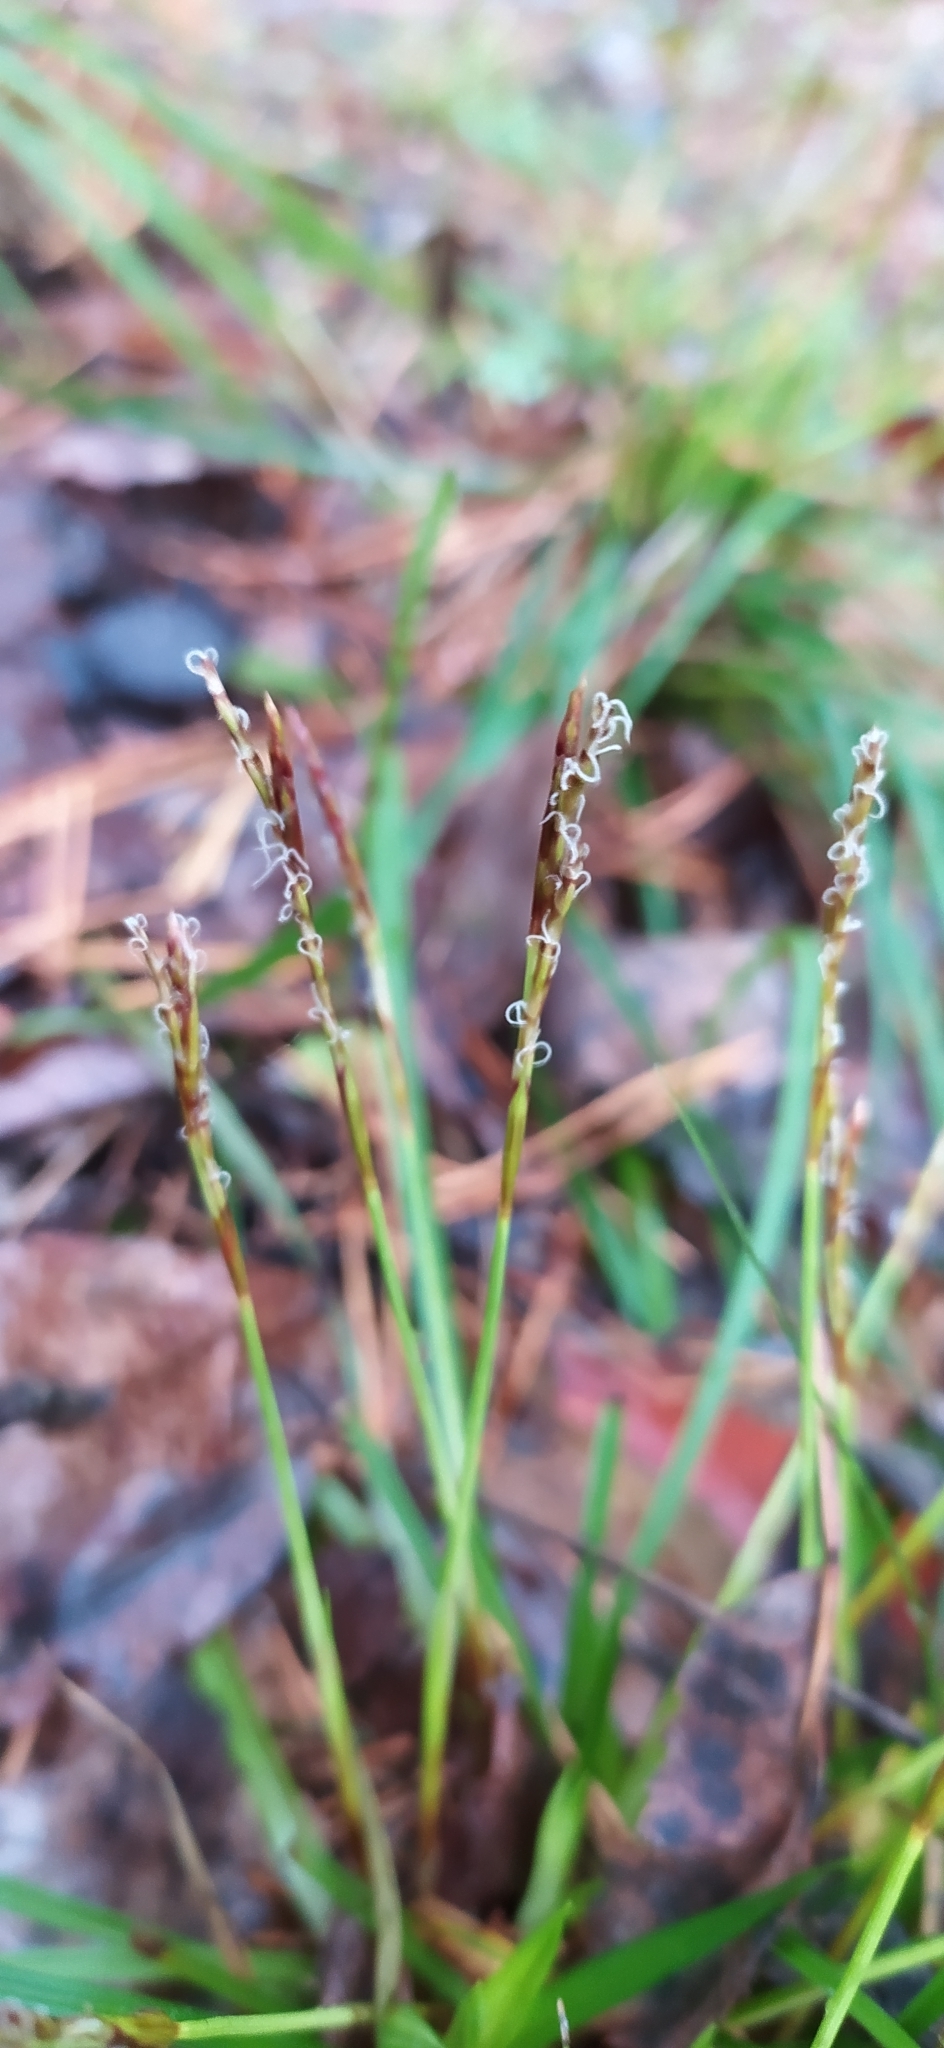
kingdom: Plantae
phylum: Tracheophyta
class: Liliopsida
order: Poales
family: Cyperaceae
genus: Carex
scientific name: Carex digitata
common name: Fingered sedge
